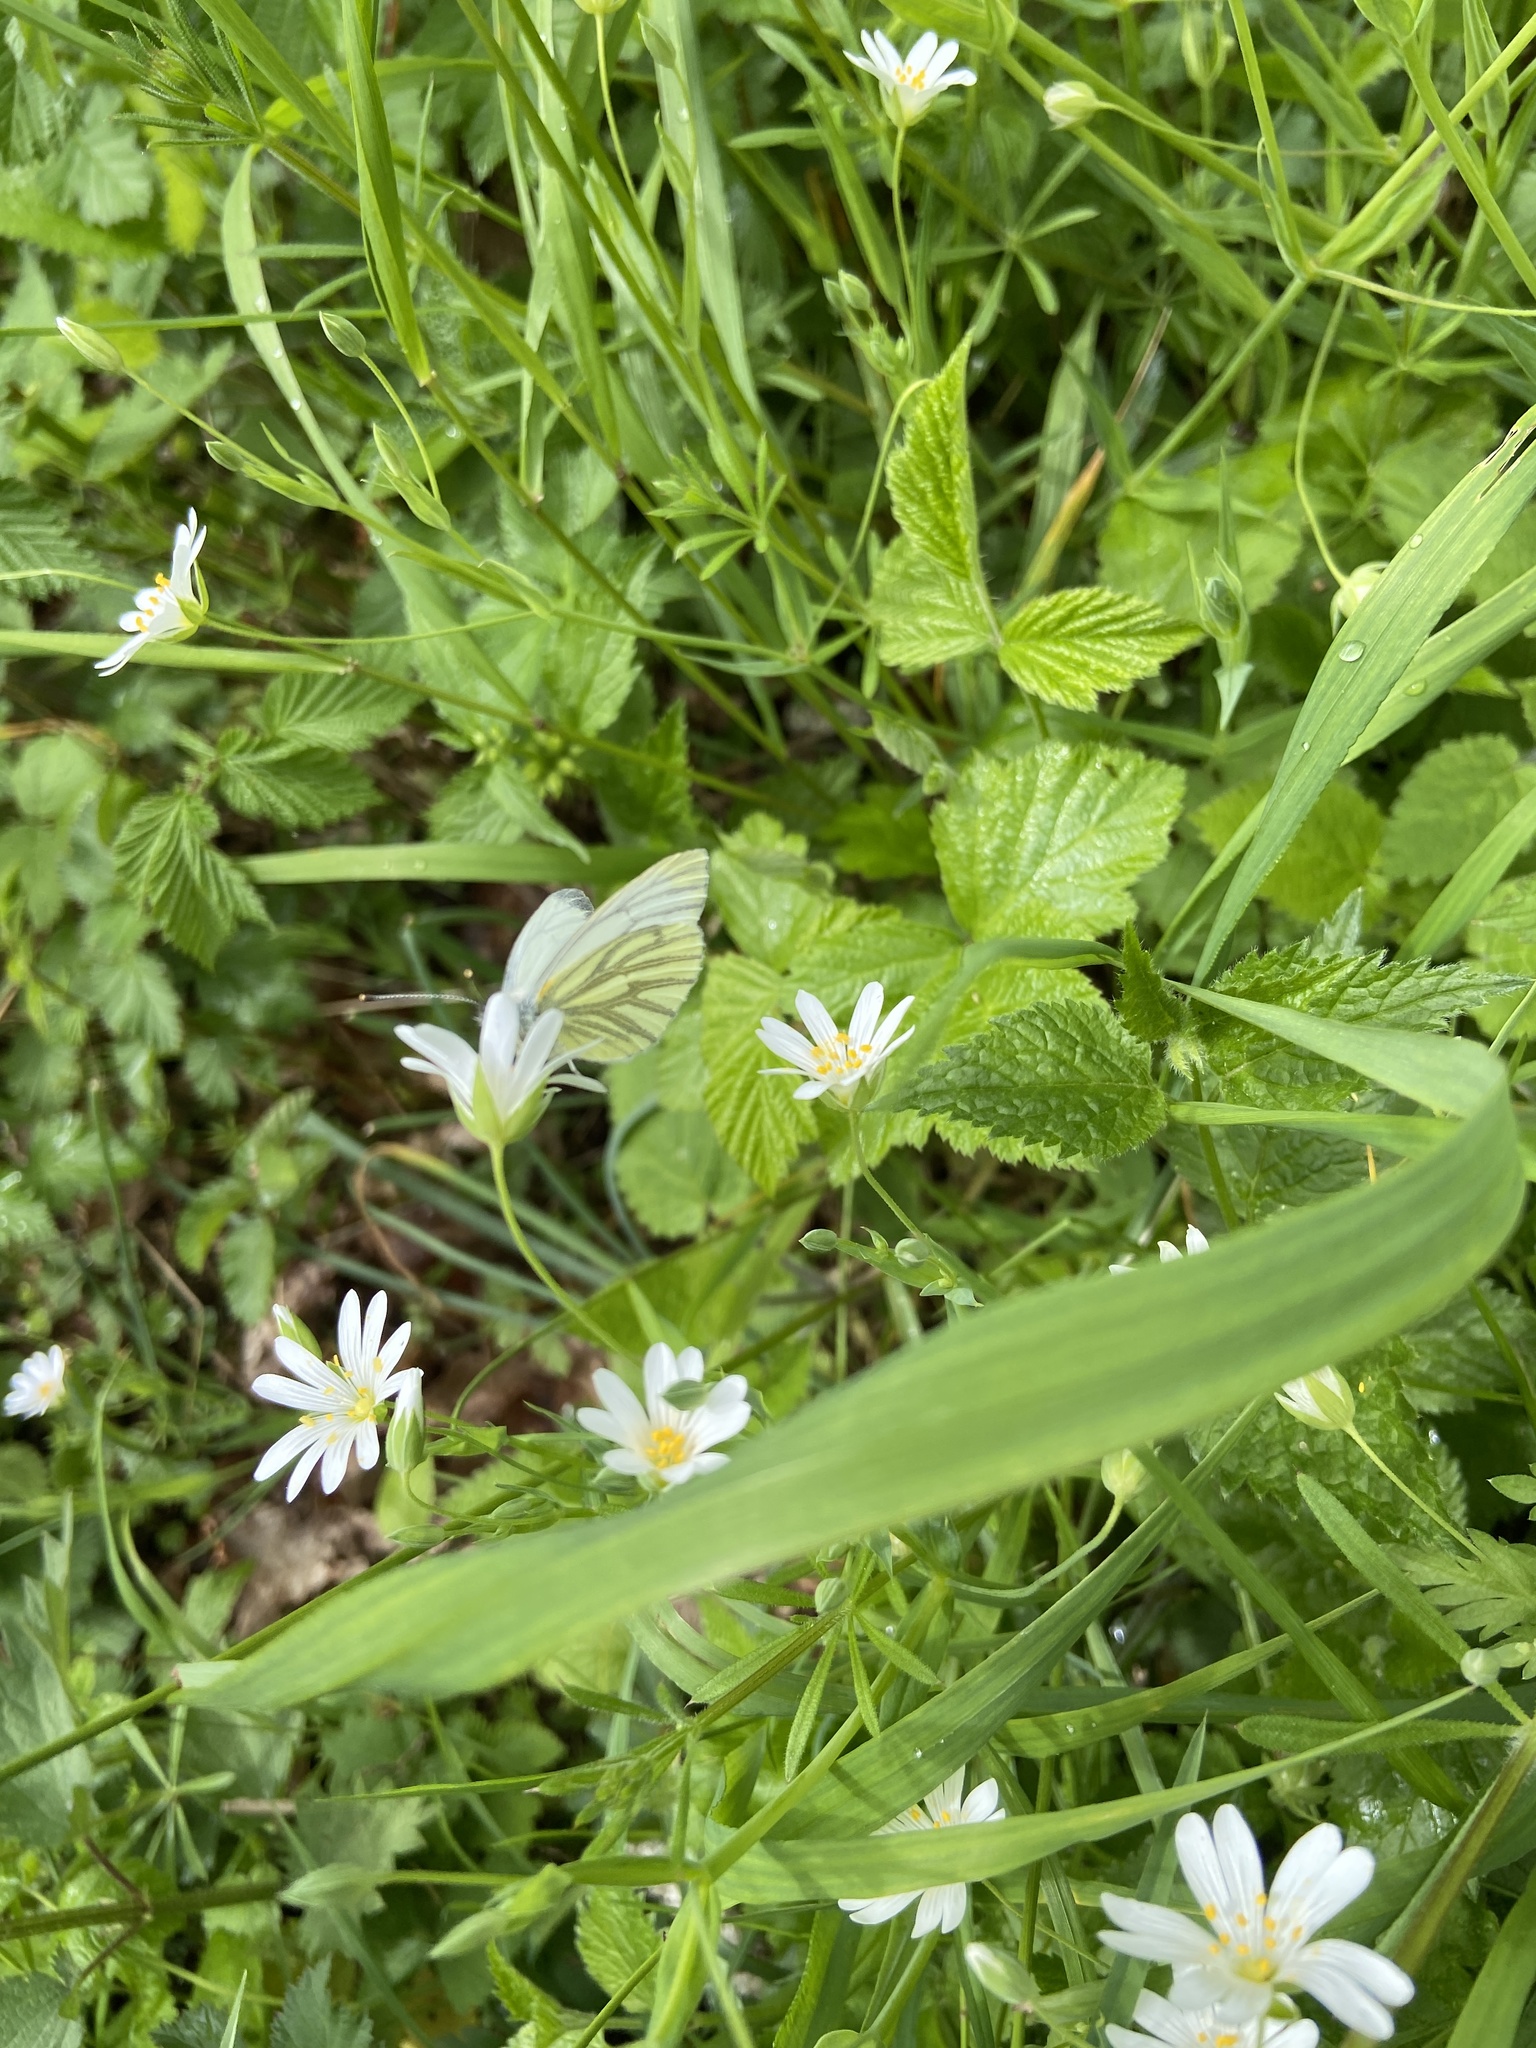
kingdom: Animalia
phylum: Arthropoda
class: Insecta
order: Lepidoptera
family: Pieridae
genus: Pieris
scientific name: Pieris napi
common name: Green-veined white
